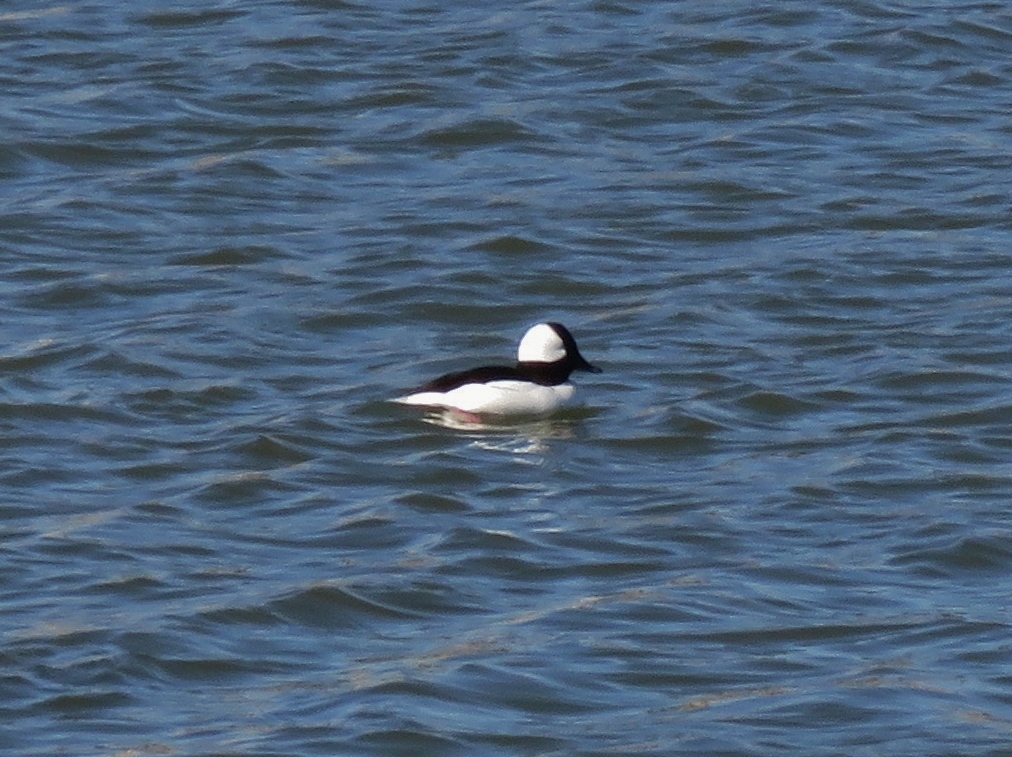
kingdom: Animalia
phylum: Chordata
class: Aves
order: Anseriformes
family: Anatidae
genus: Bucephala
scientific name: Bucephala albeola
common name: Bufflehead
